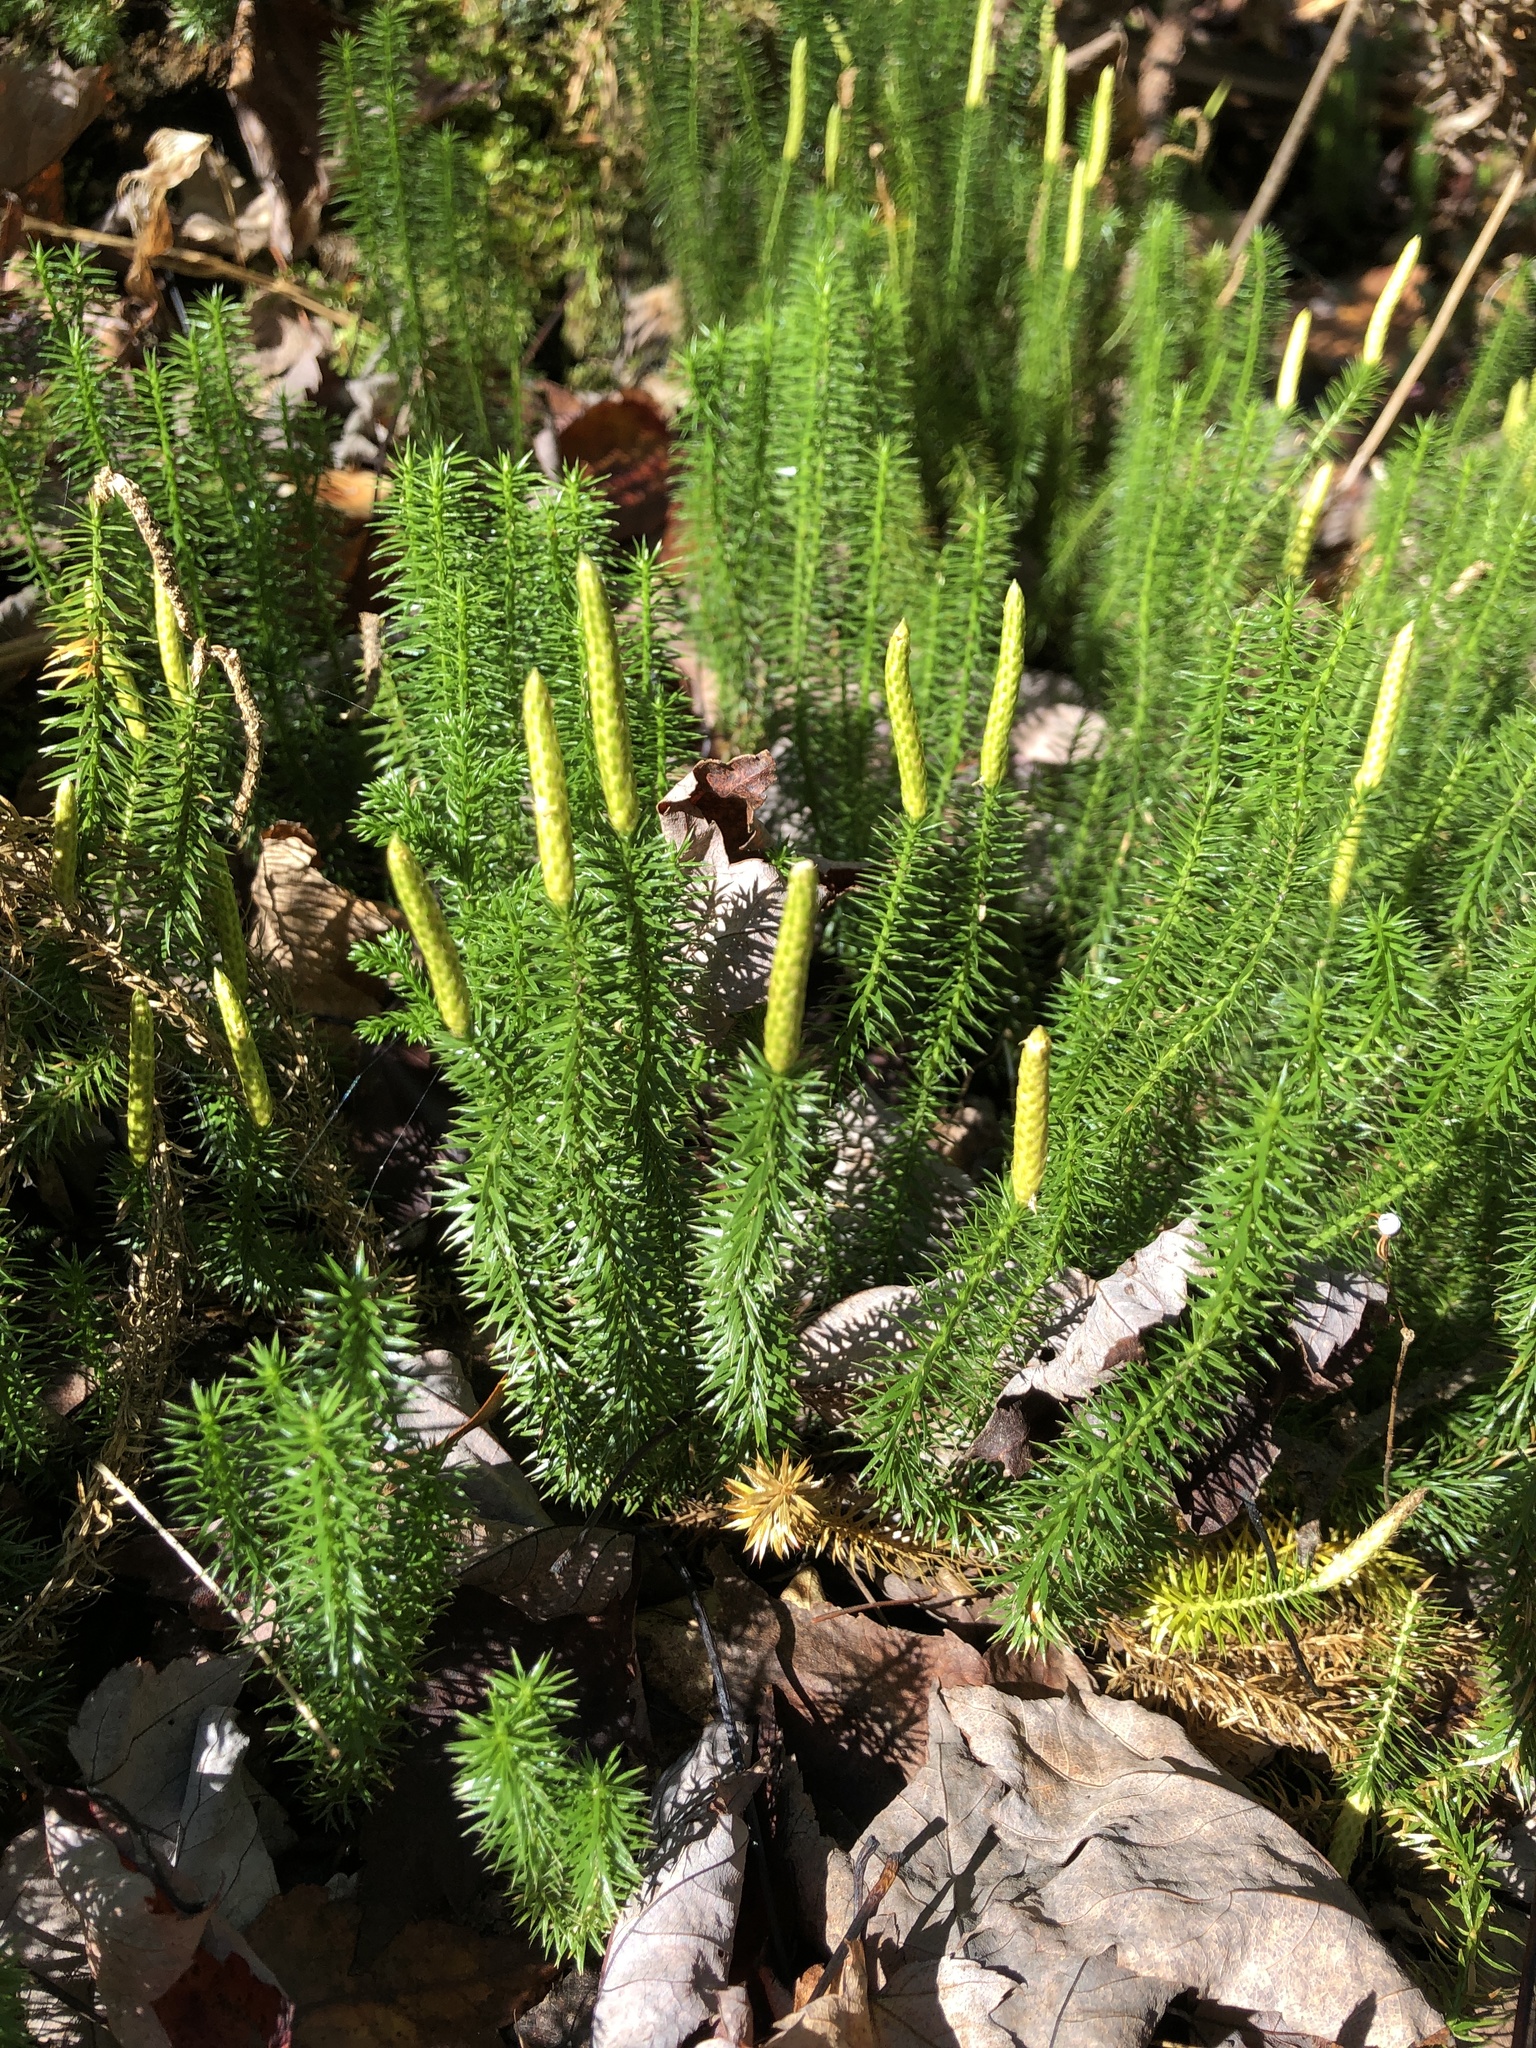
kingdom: Plantae
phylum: Tracheophyta
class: Lycopodiopsida
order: Lycopodiales
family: Lycopodiaceae
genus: Spinulum
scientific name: Spinulum annotinum
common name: Interrupted club-moss
